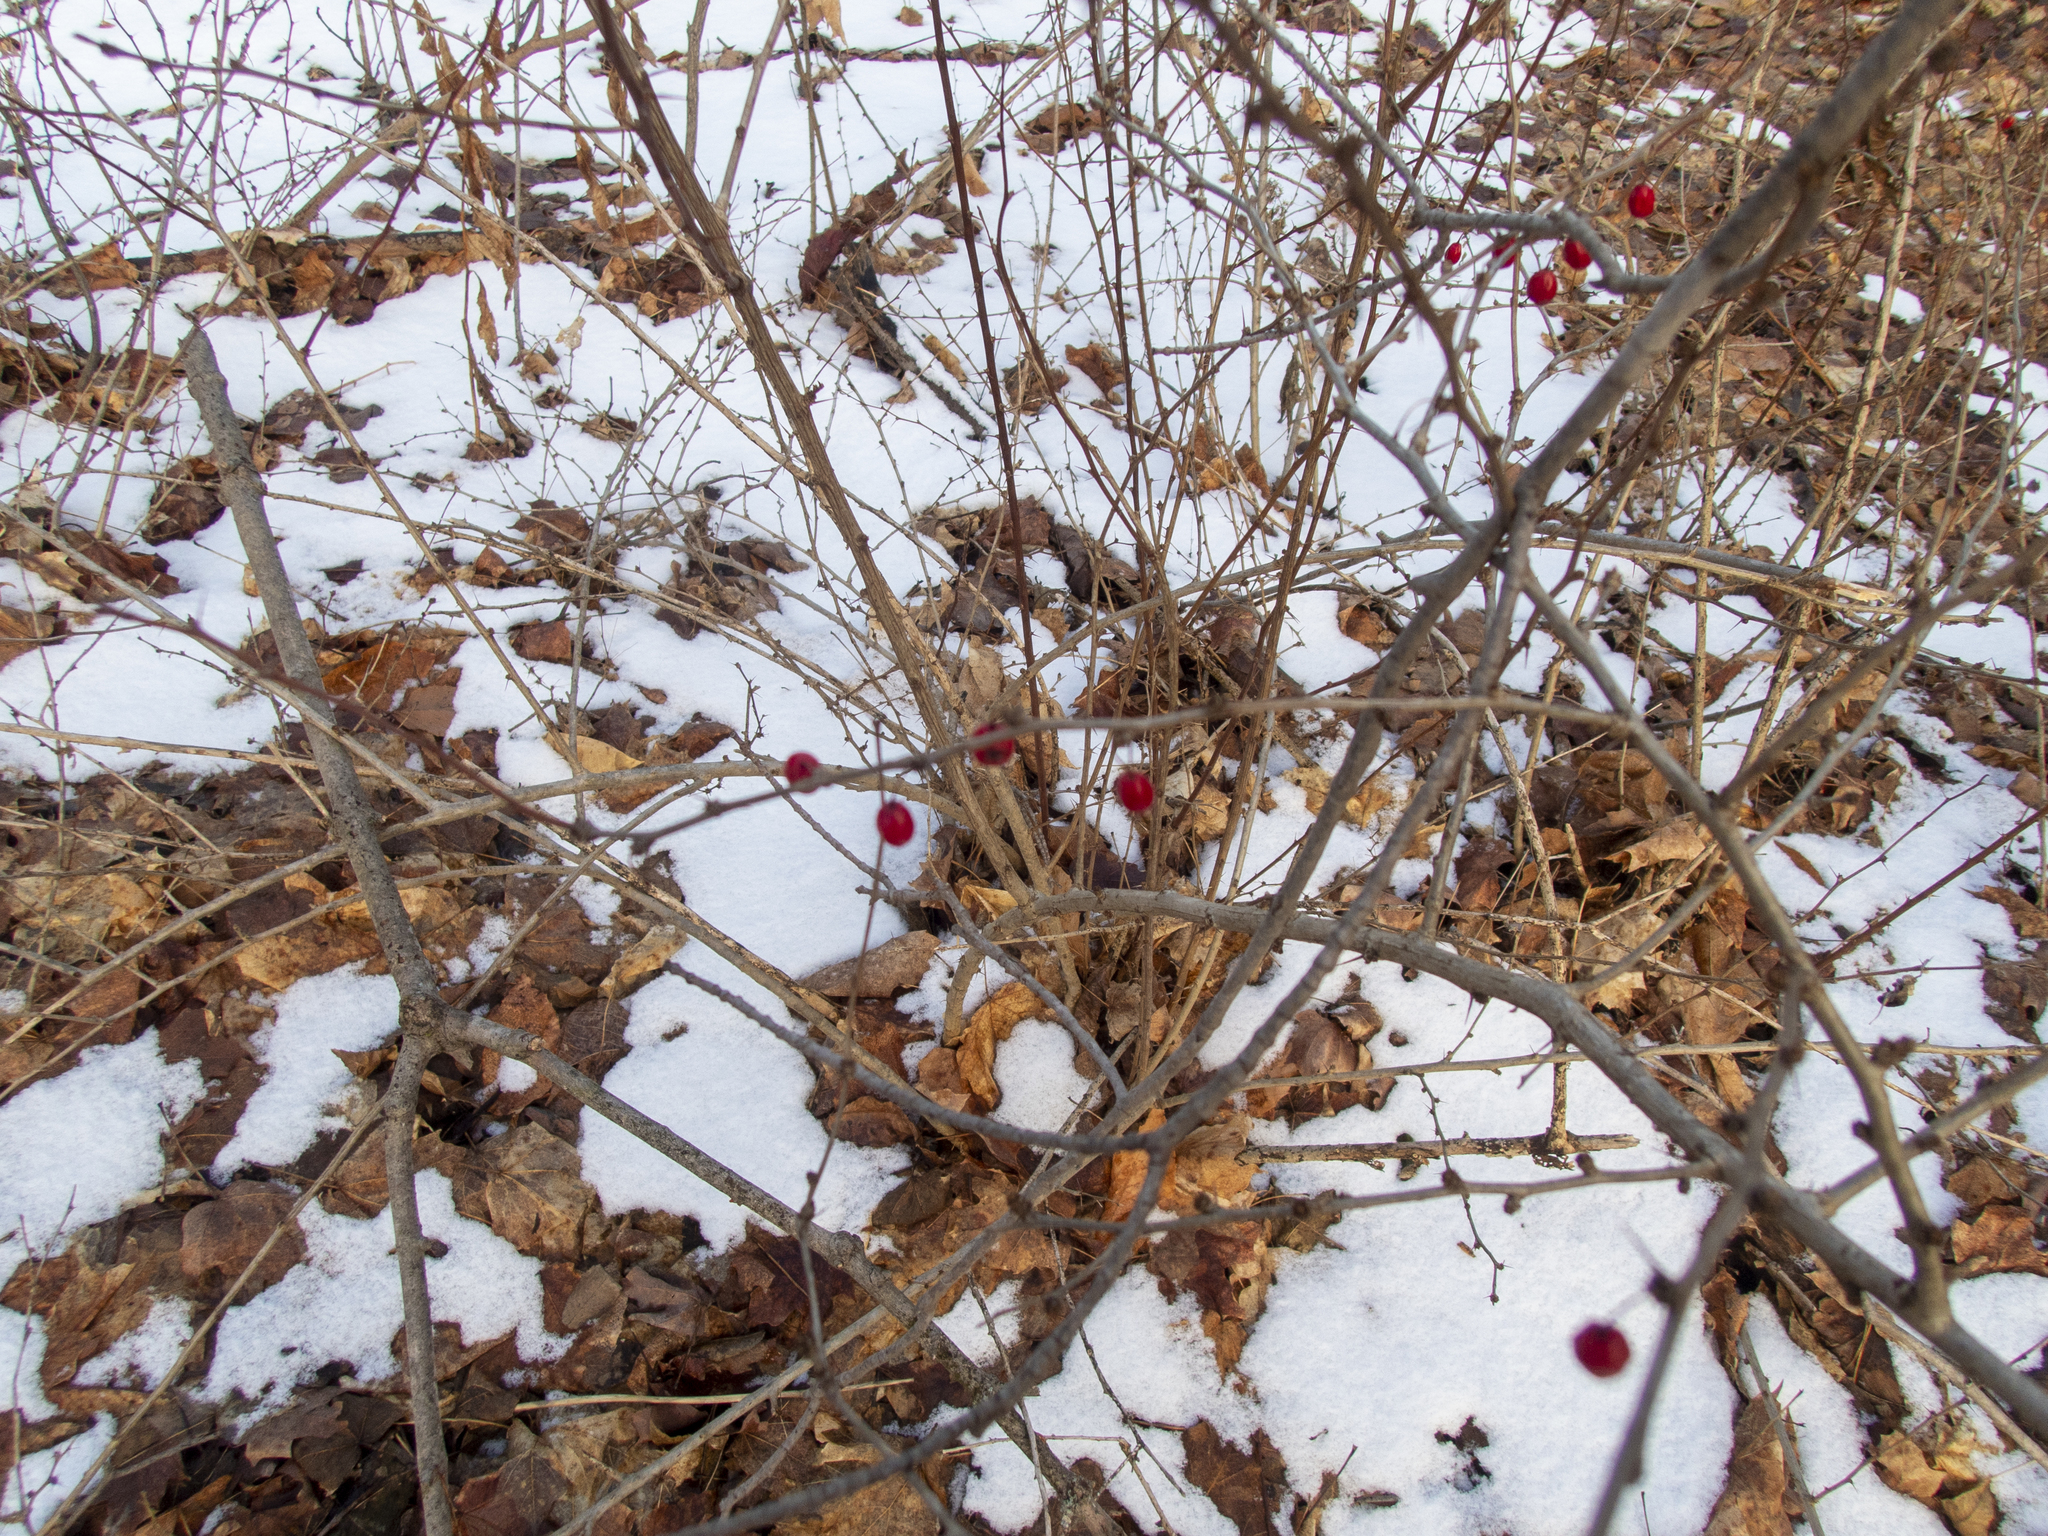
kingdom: Plantae
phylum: Tracheophyta
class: Magnoliopsida
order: Ranunculales
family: Berberidaceae
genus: Berberis
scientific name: Berberis thunbergii
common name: Japanese barberry
